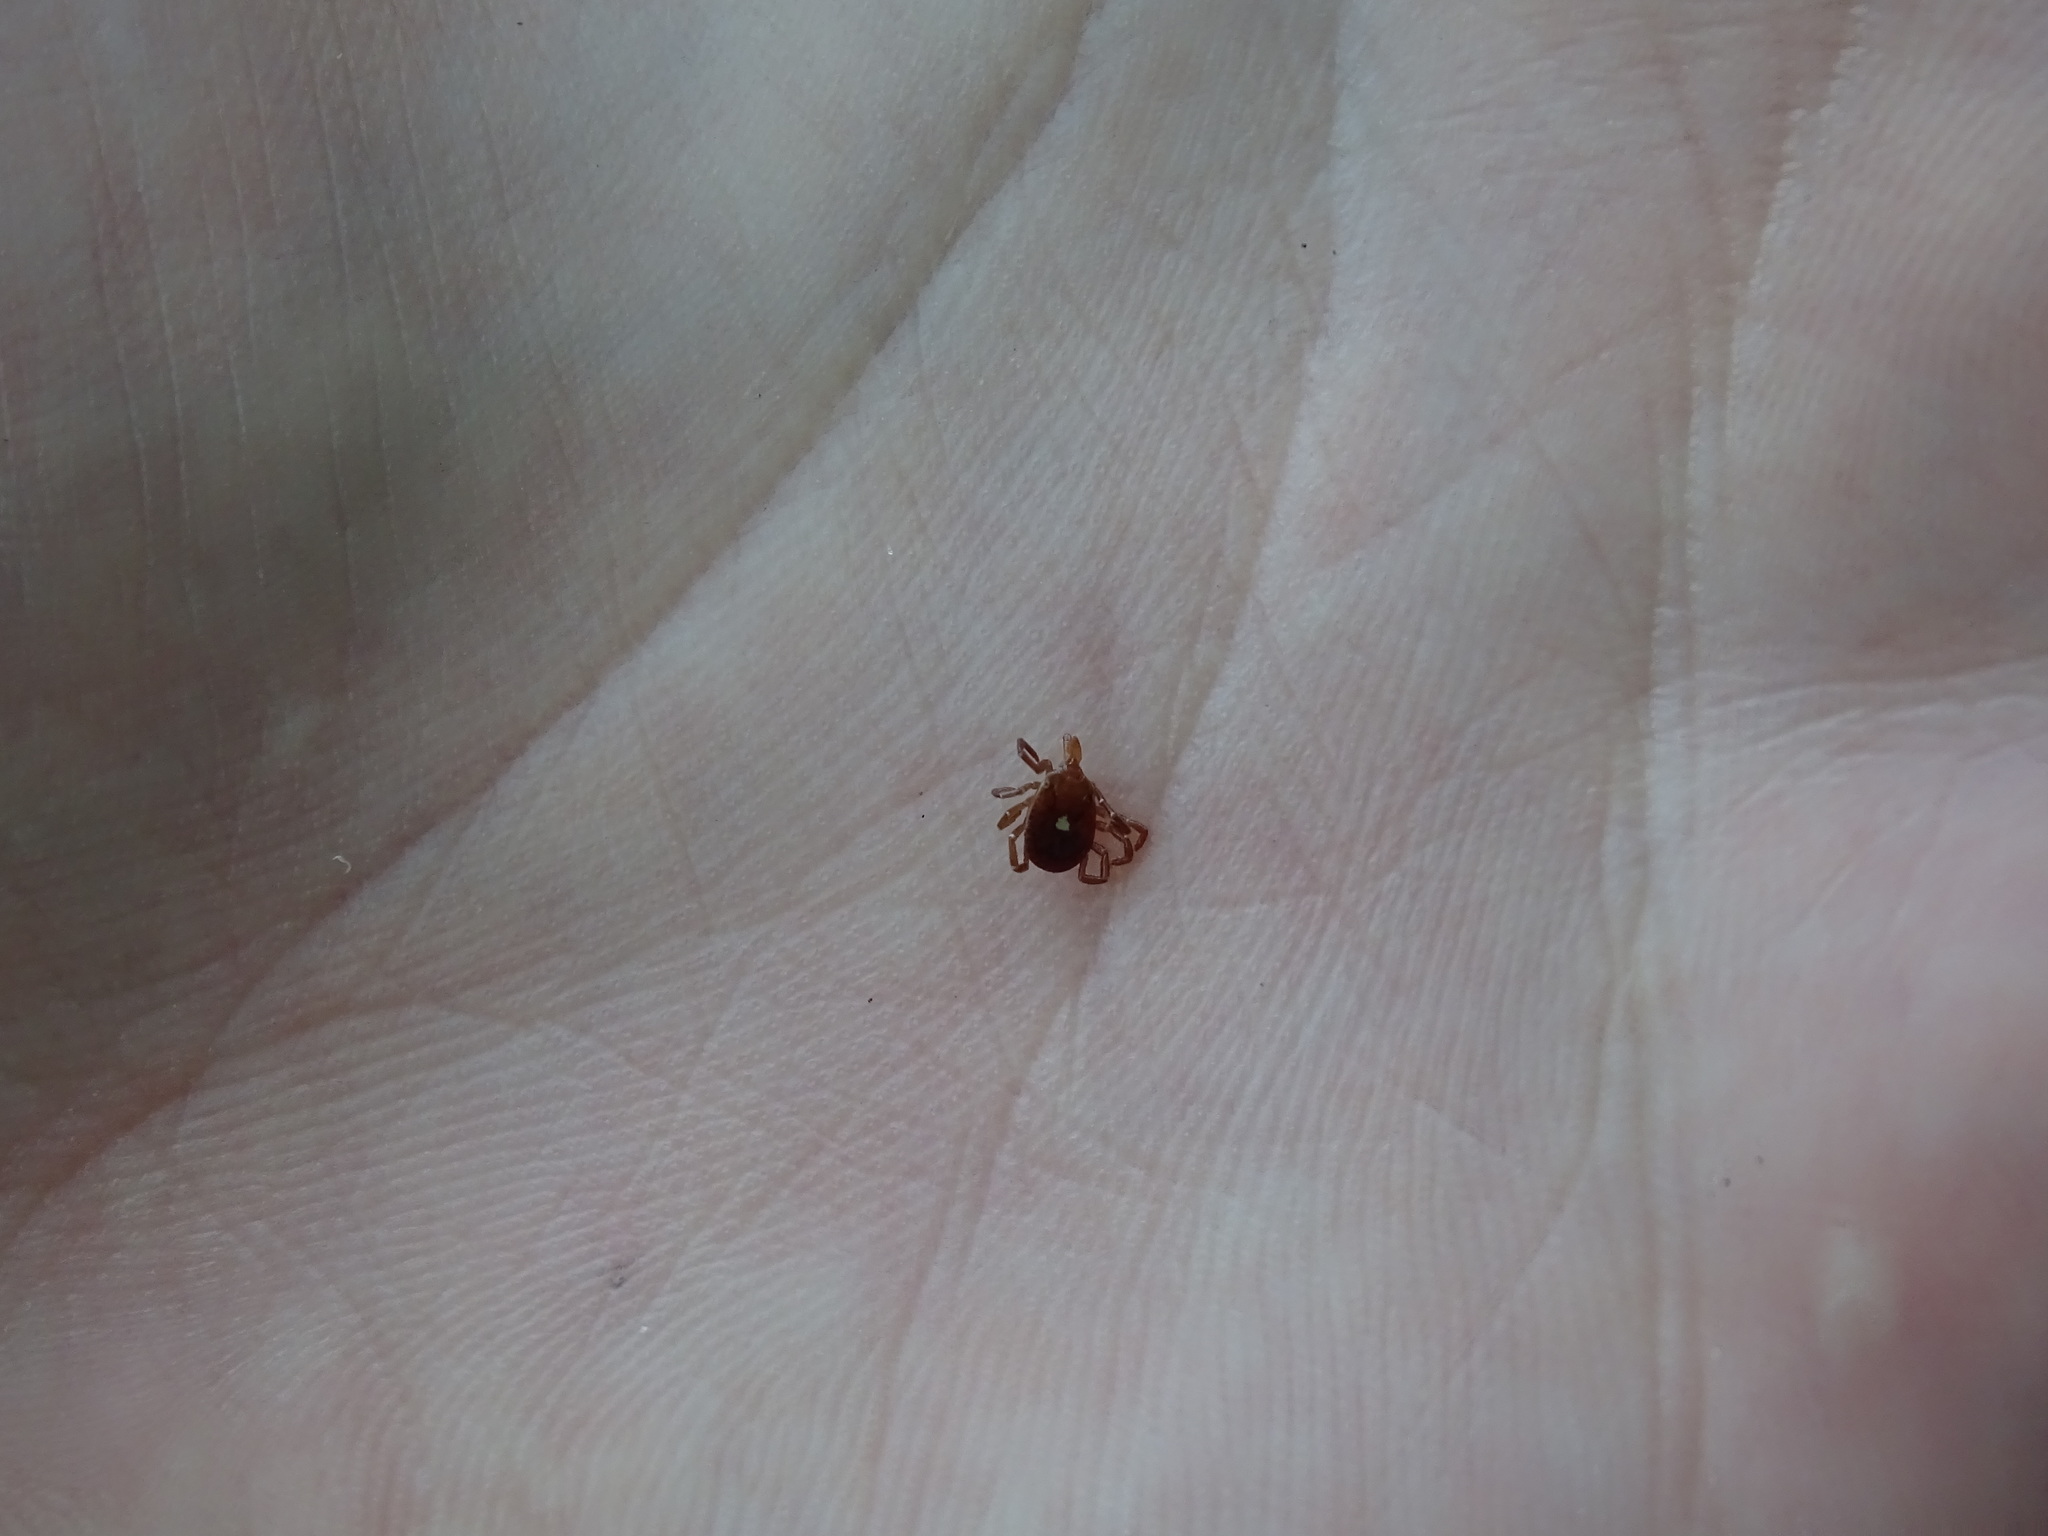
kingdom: Animalia
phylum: Arthropoda
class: Arachnida
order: Ixodida
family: Ixodidae
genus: Amblyomma
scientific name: Amblyomma americanum
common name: Lone star tick
